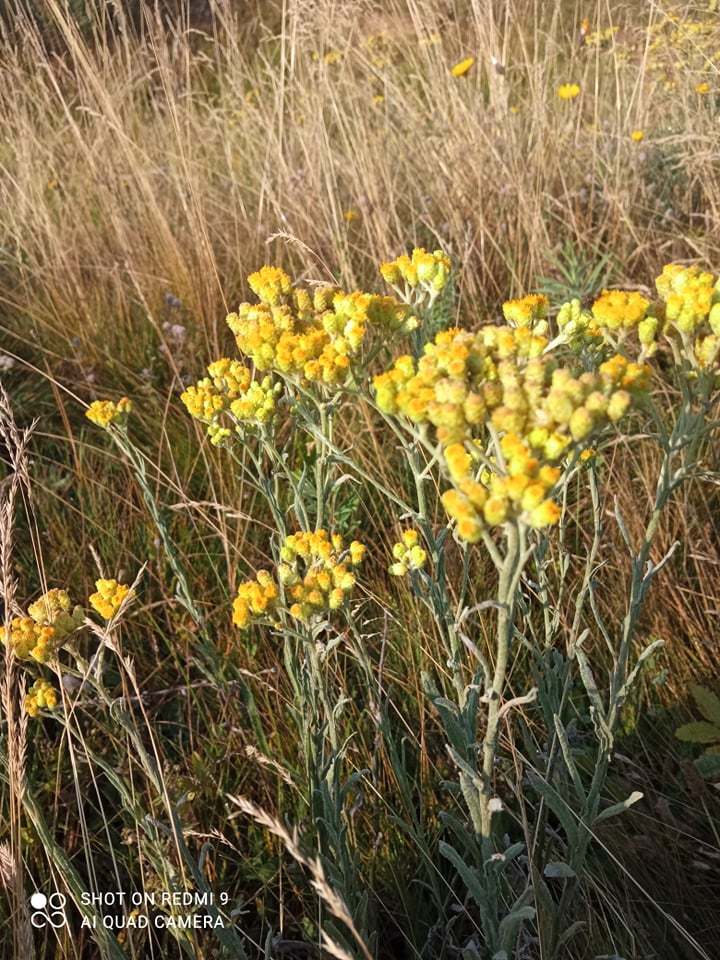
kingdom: Plantae
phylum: Tracheophyta
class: Magnoliopsida
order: Asterales
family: Asteraceae
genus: Helichrysum
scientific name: Helichrysum arenarium
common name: Strawflower
